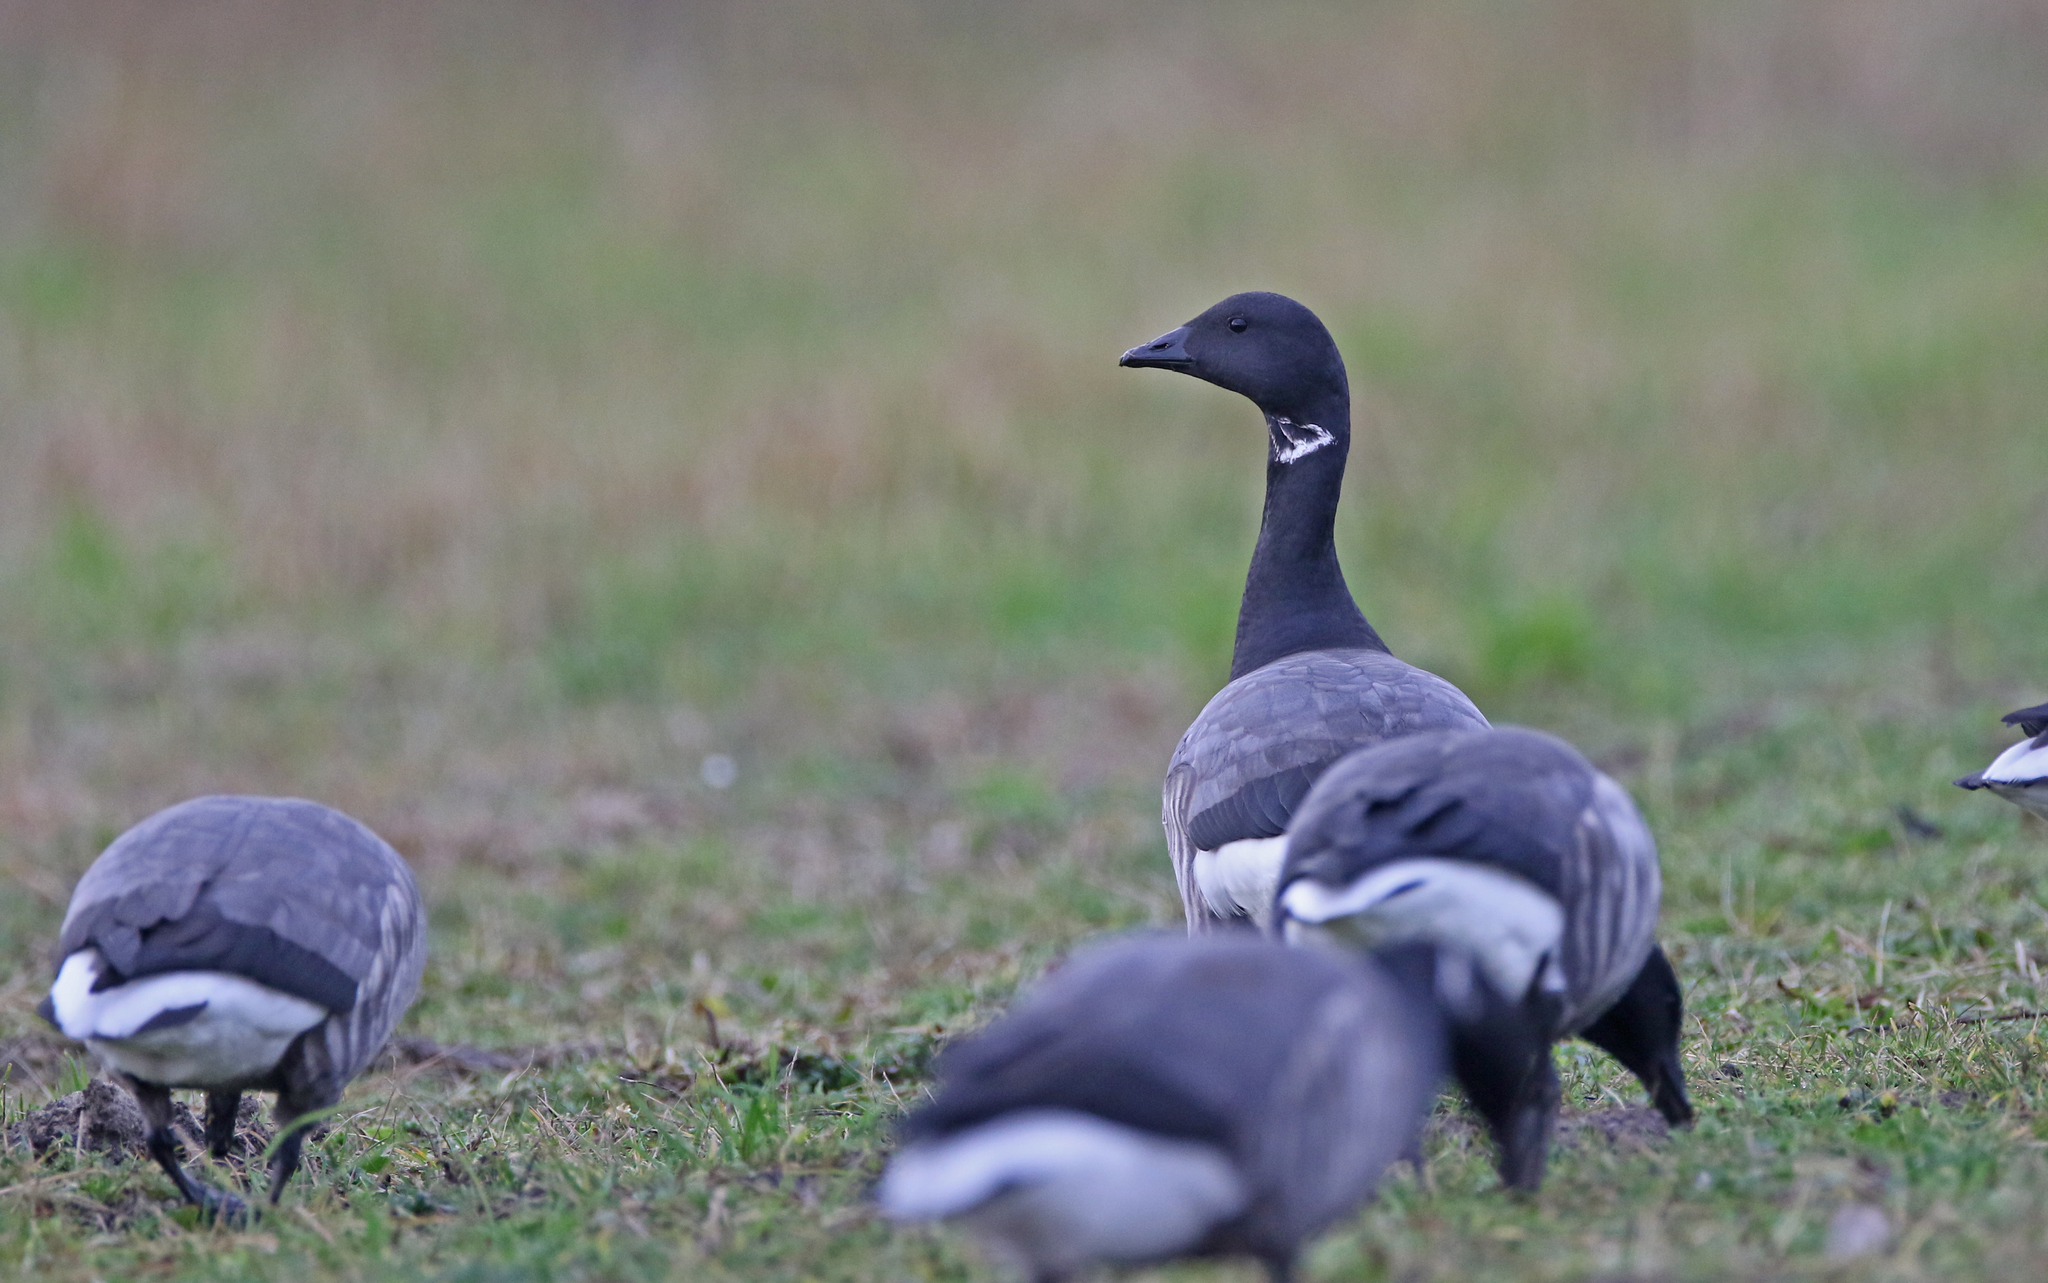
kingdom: Animalia
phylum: Chordata
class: Aves
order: Anseriformes
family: Anatidae
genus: Branta
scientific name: Branta bernicla
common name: Brant goose
